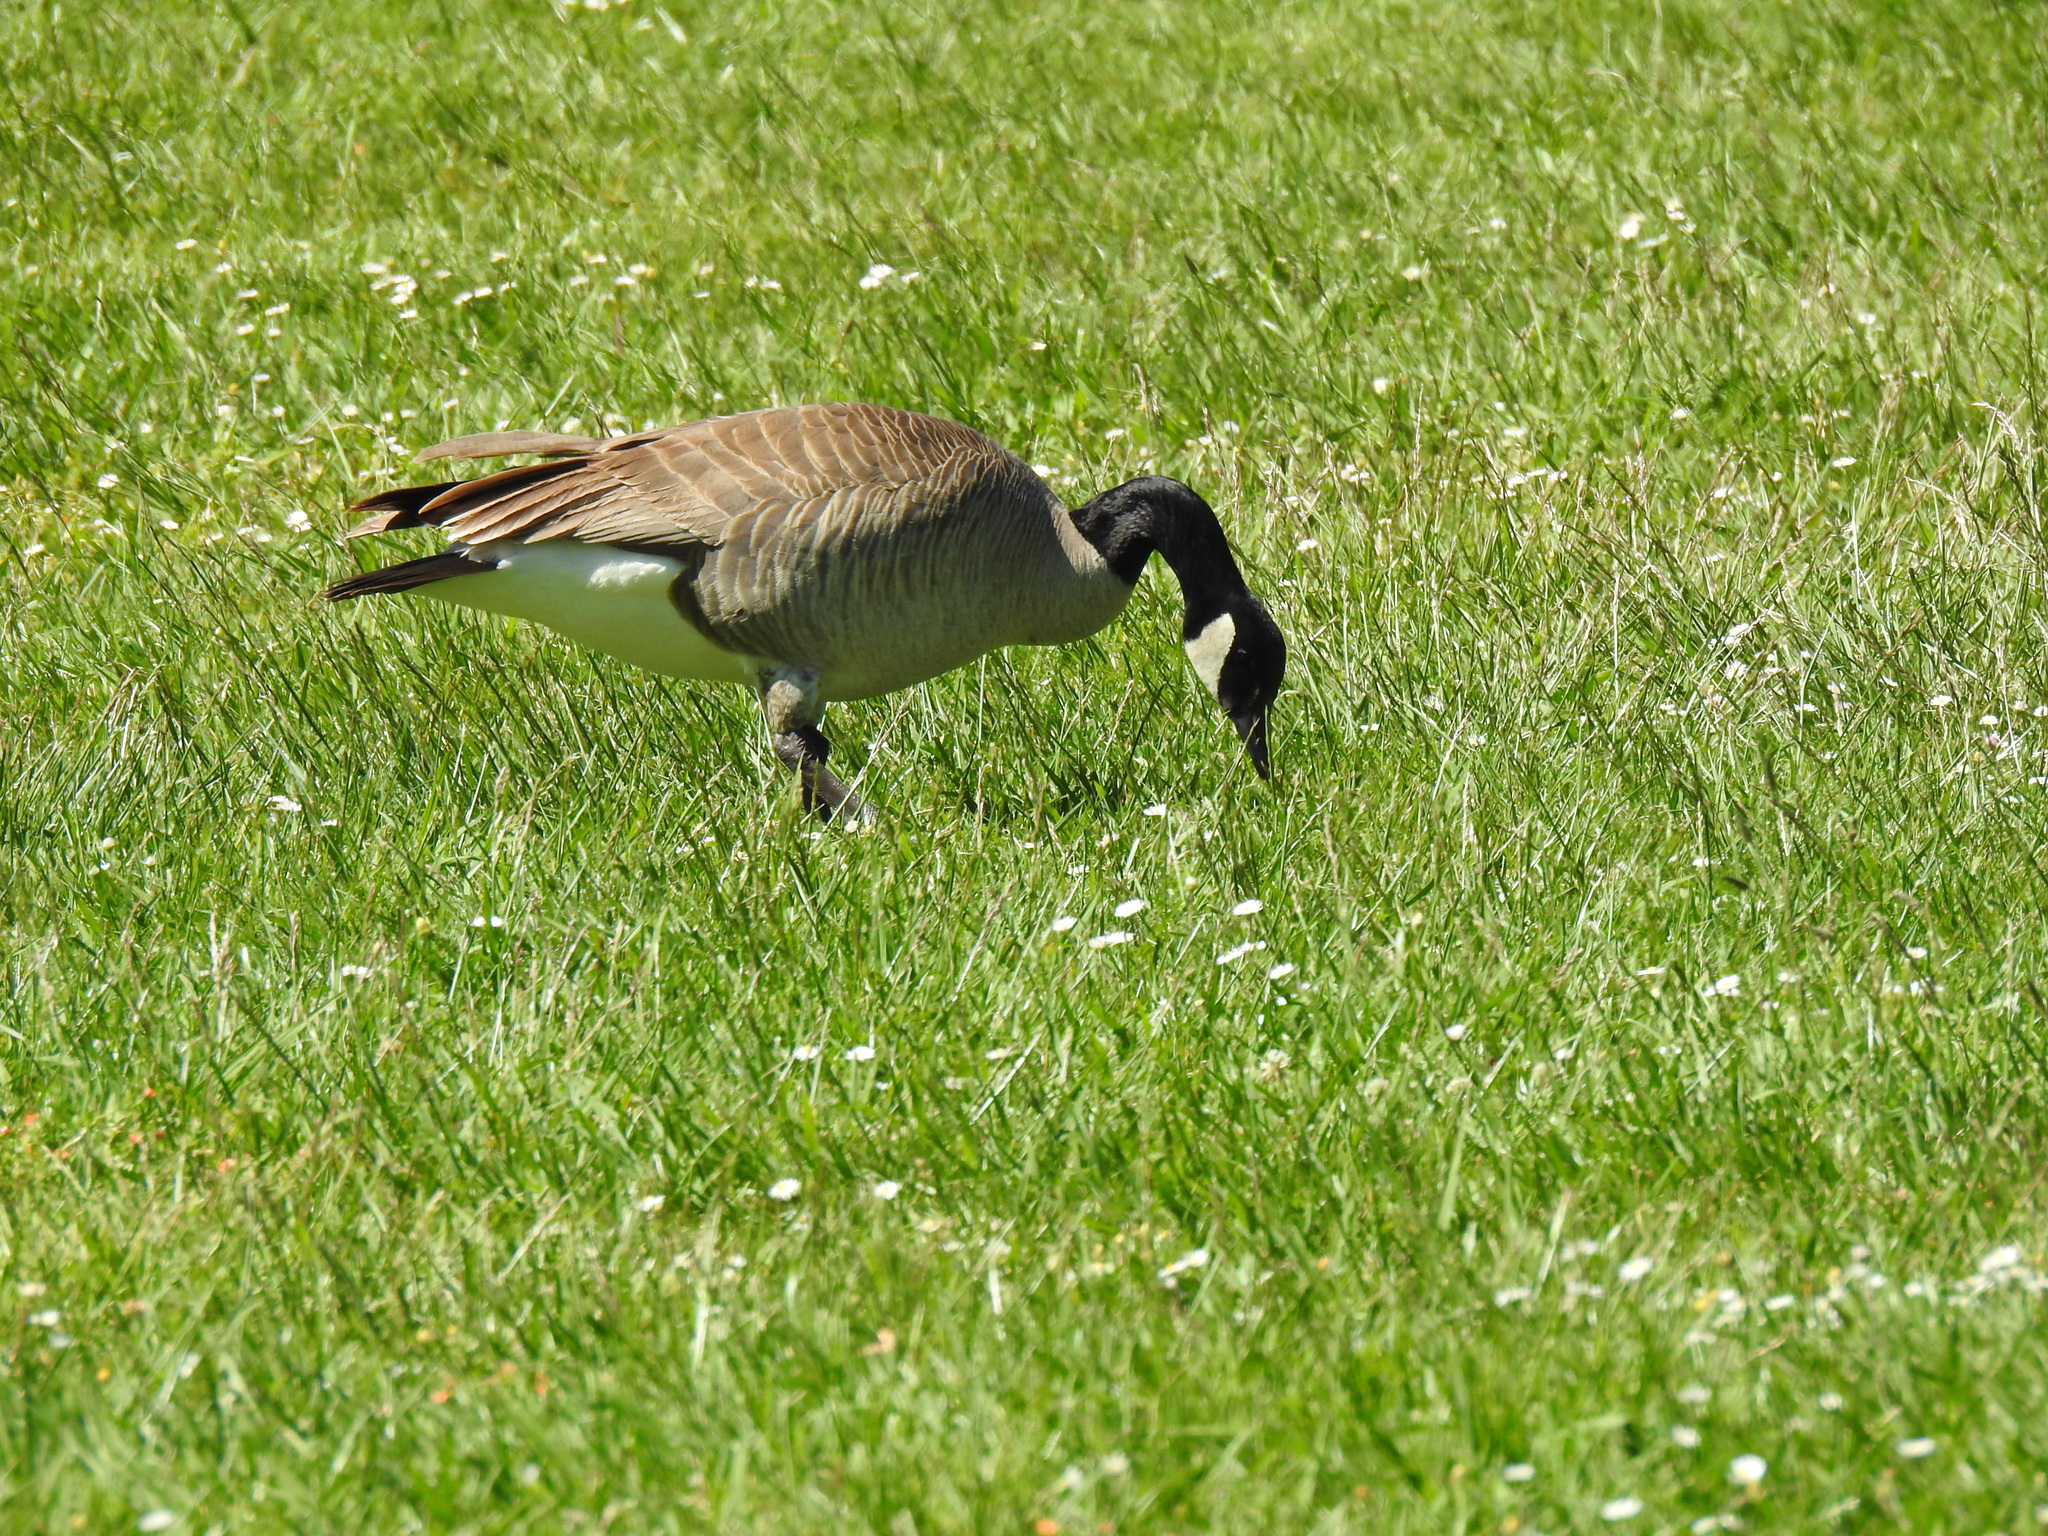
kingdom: Animalia
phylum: Chordata
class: Aves
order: Anseriformes
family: Anatidae
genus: Branta
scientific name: Branta canadensis
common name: Canada goose
